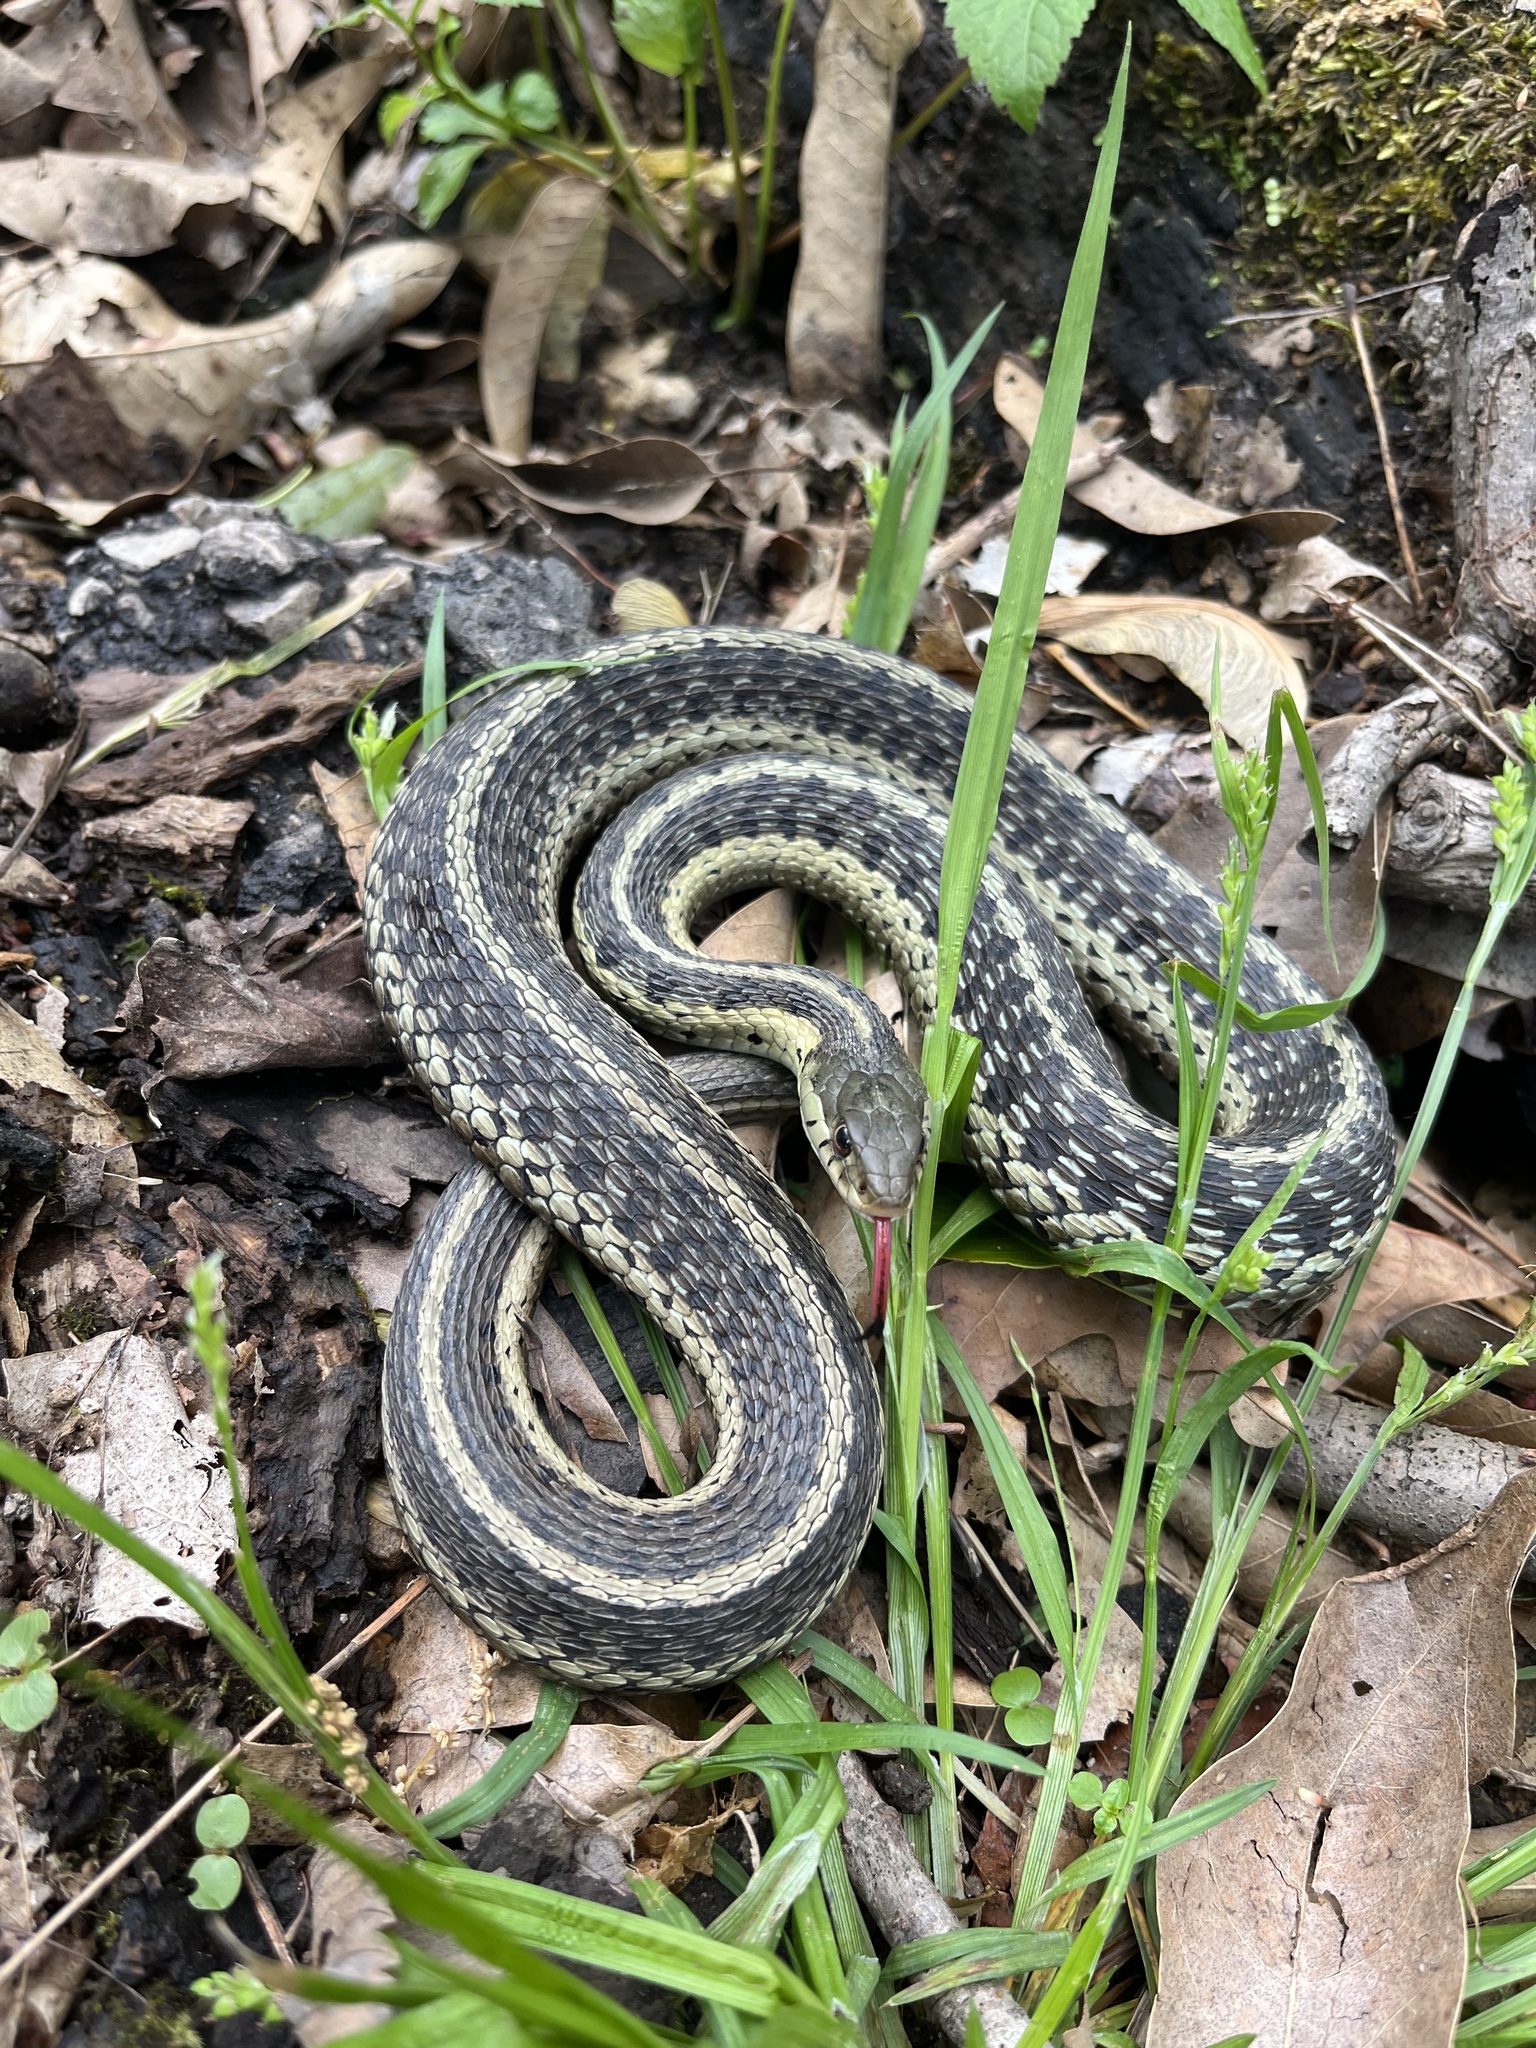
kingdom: Animalia
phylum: Chordata
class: Squamata
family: Colubridae
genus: Thamnophis
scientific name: Thamnophis sirtalis
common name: Common garter snake
